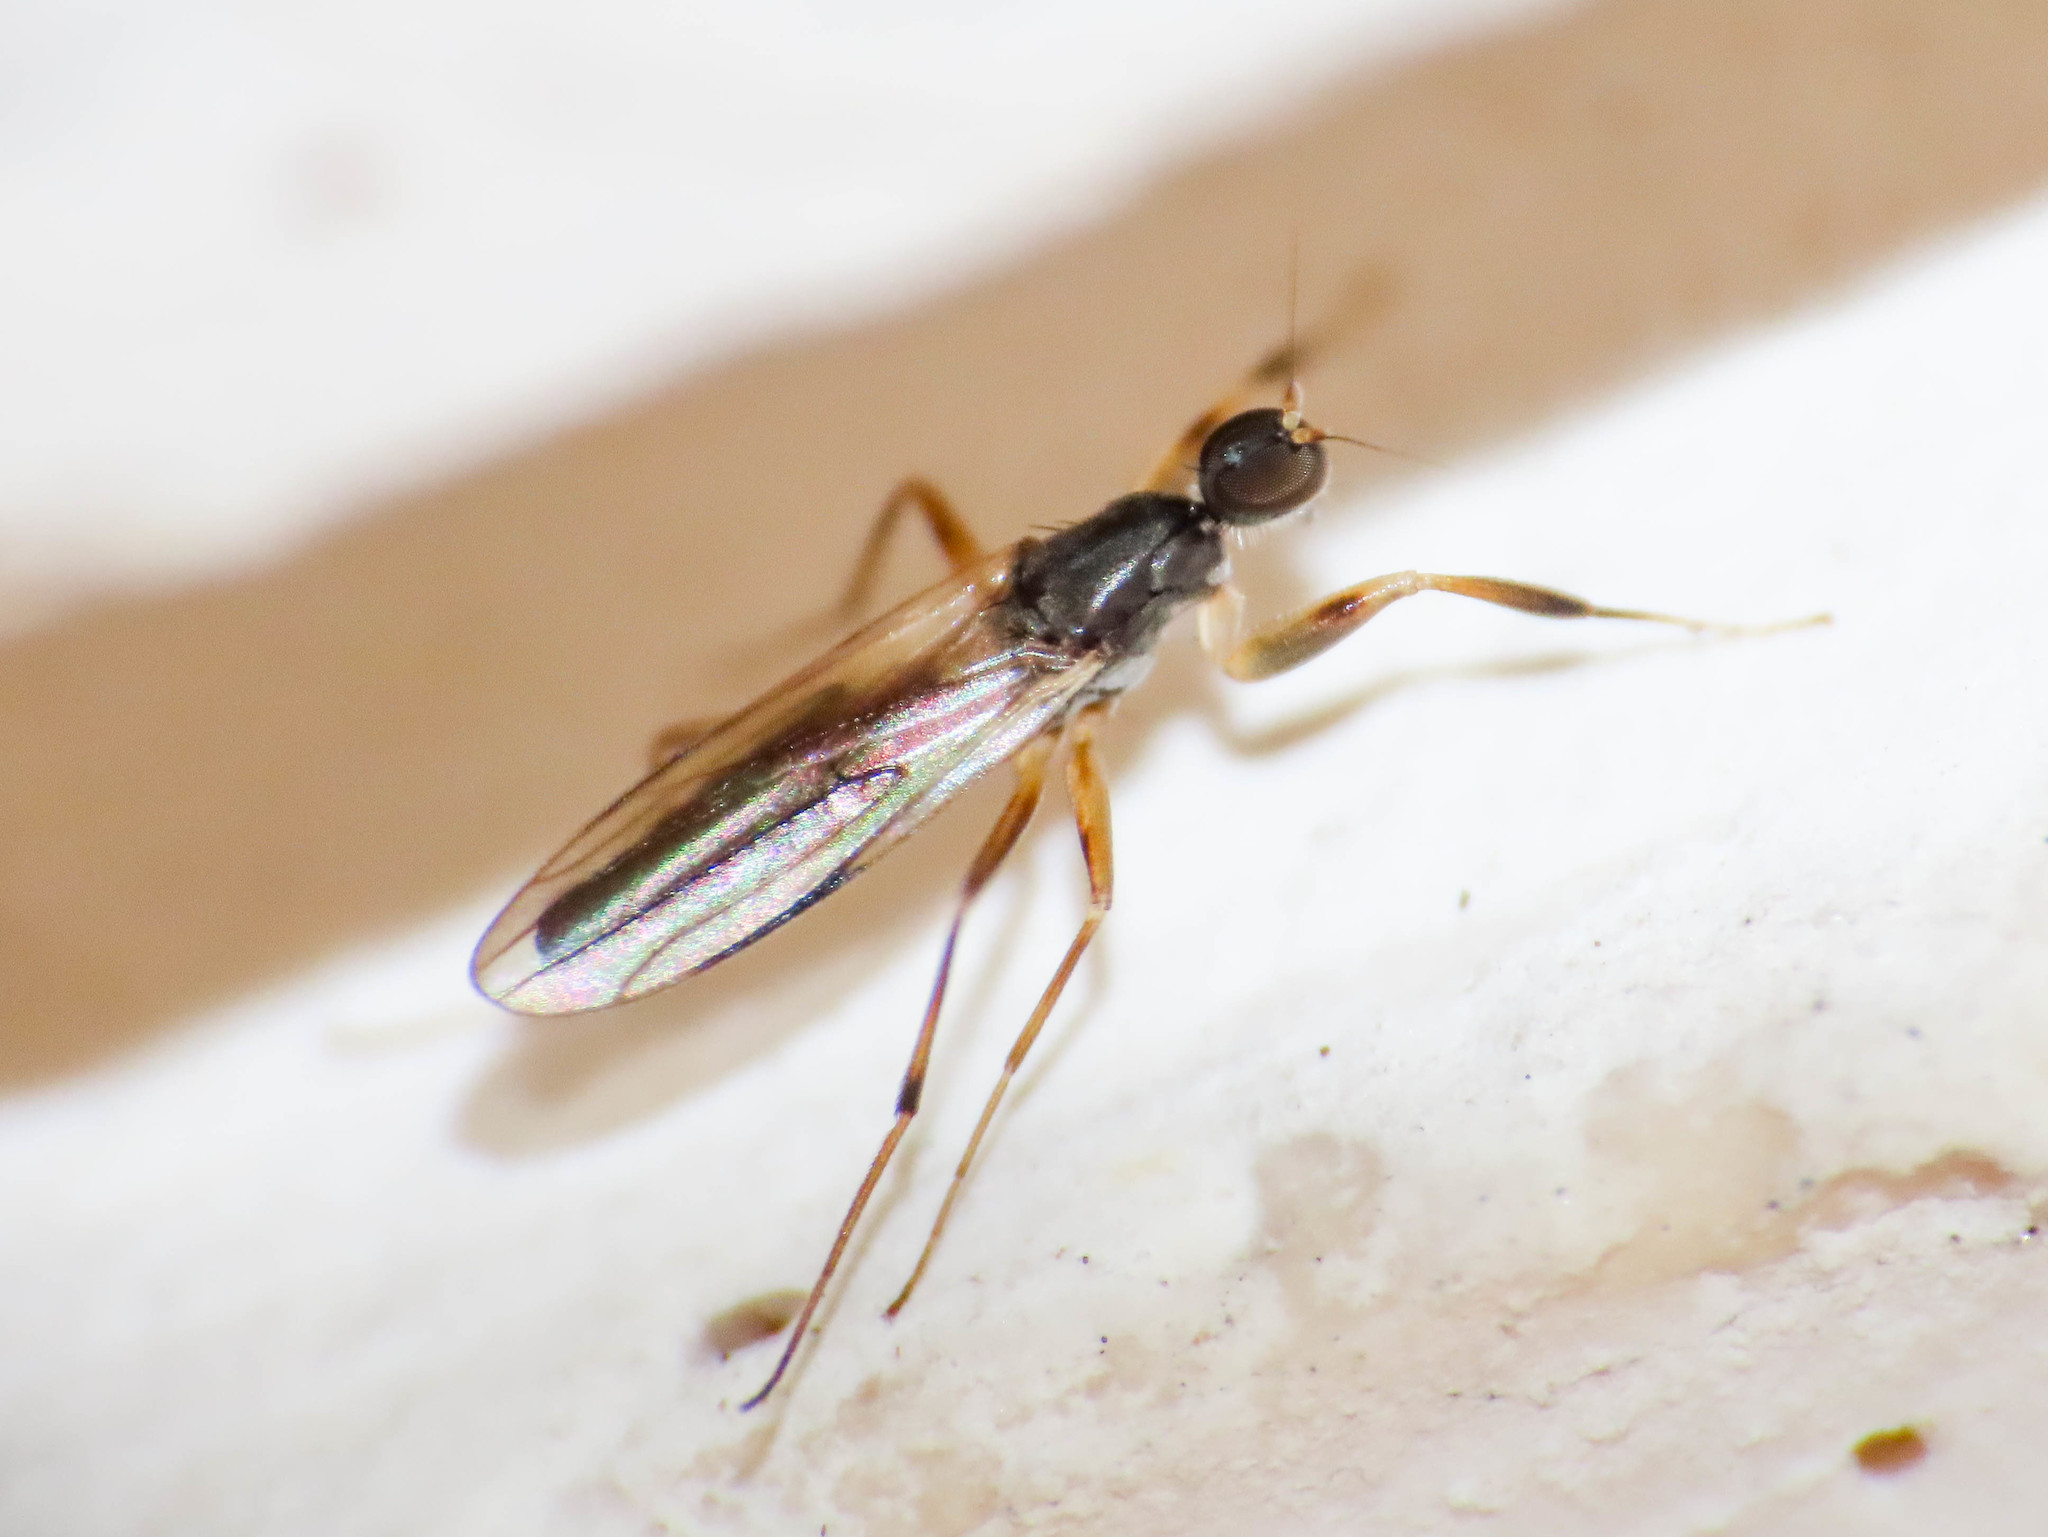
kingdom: Animalia
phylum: Arthropoda
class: Insecta
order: Diptera
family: Hybotidae
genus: Tachypeza
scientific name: Tachypeza nubila
